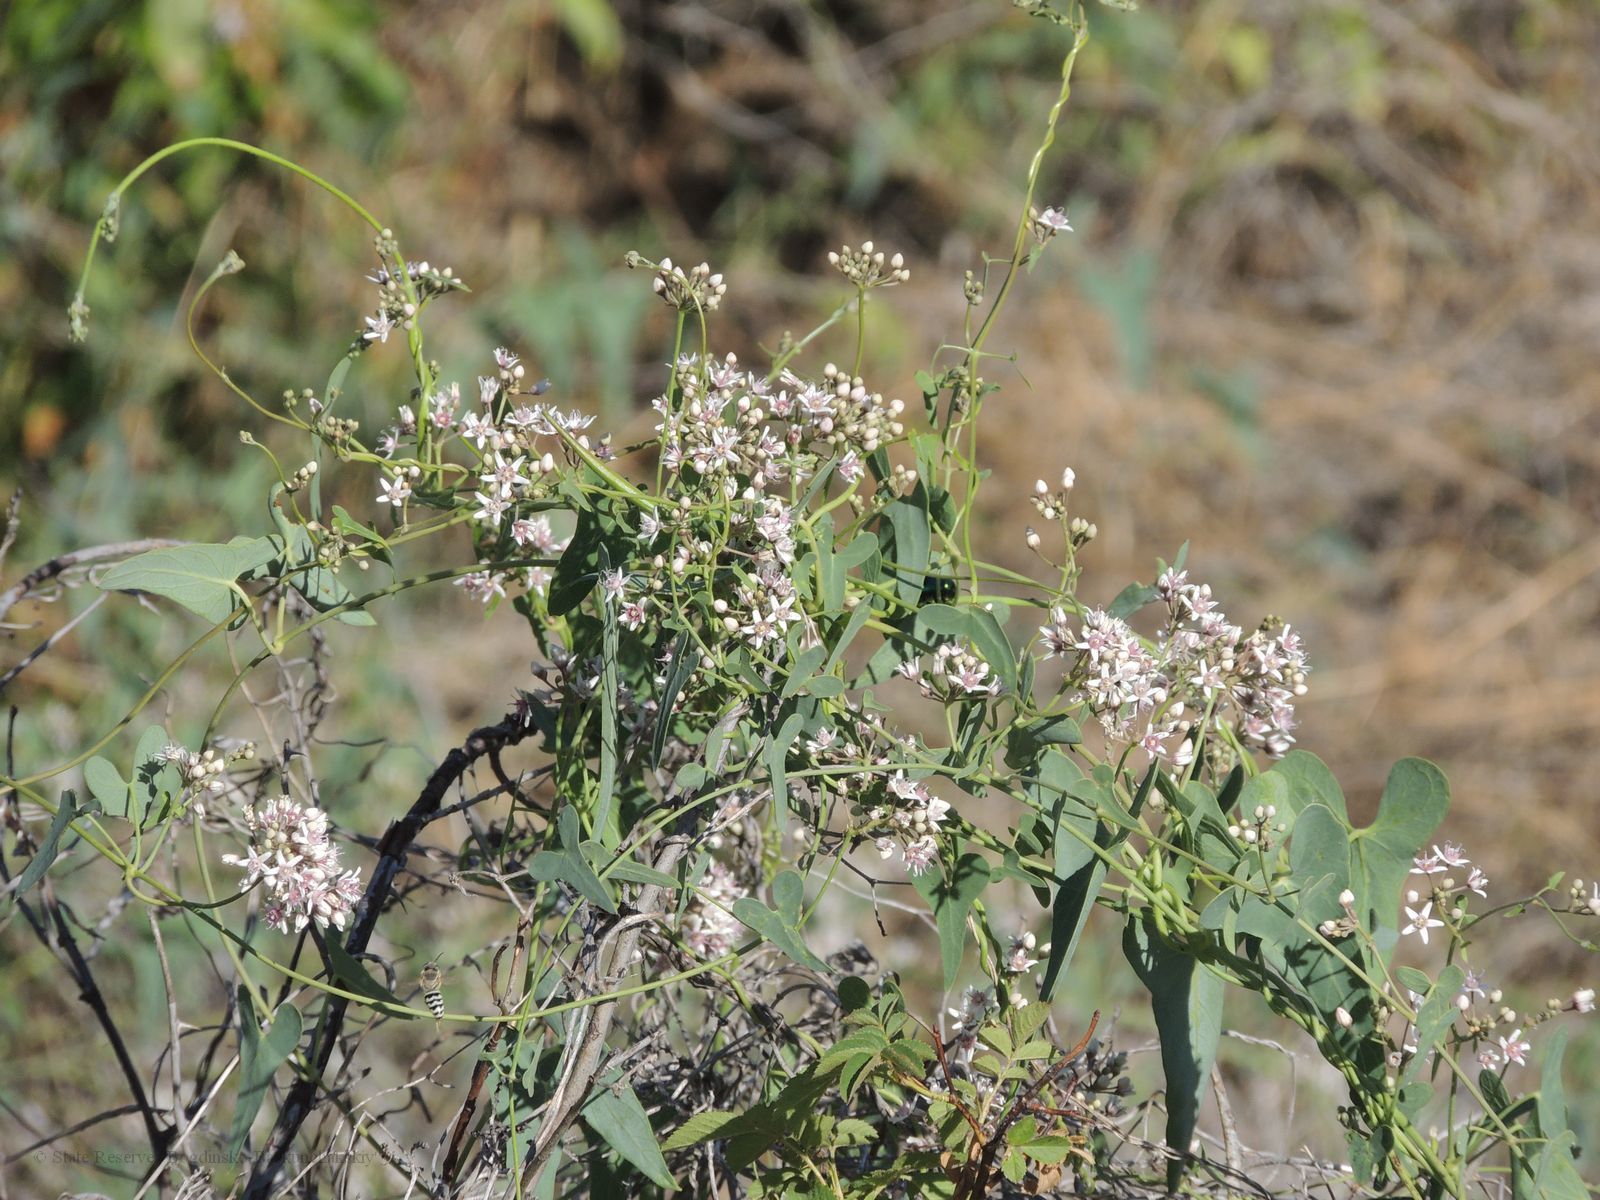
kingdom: Plantae
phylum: Tracheophyta
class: Magnoliopsida
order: Gentianales
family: Apocynaceae
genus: Cynanchum
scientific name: Cynanchum acutum
